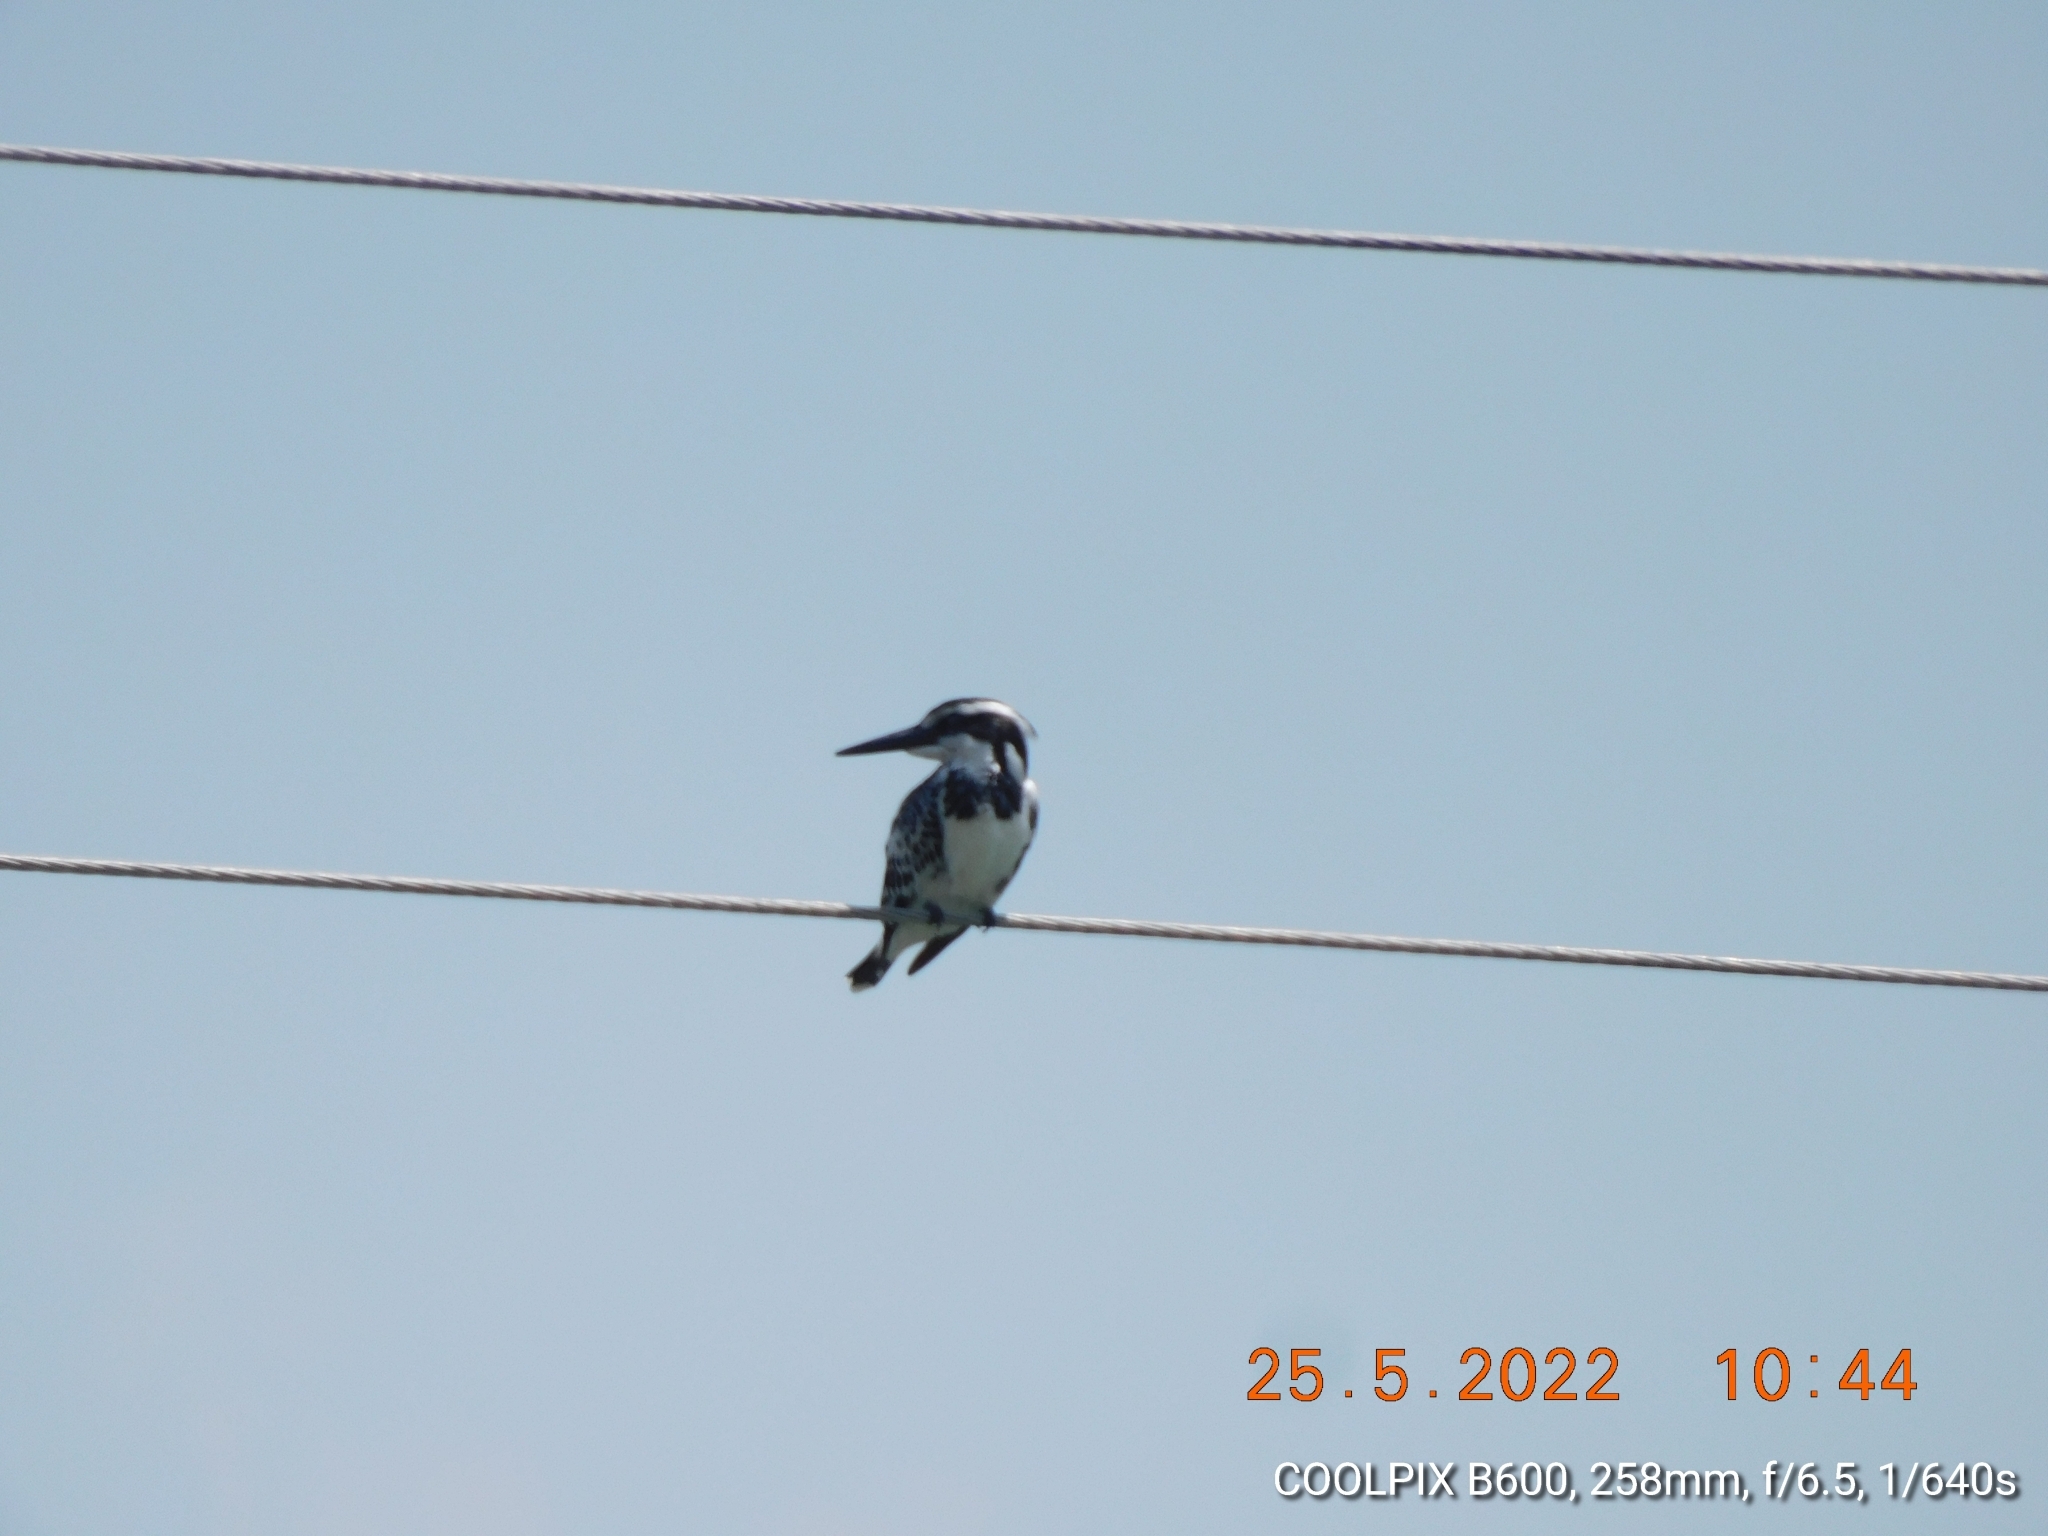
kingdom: Animalia
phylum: Chordata
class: Aves
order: Coraciiformes
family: Alcedinidae
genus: Ceryle
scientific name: Ceryle rudis
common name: Pied kingfisher
